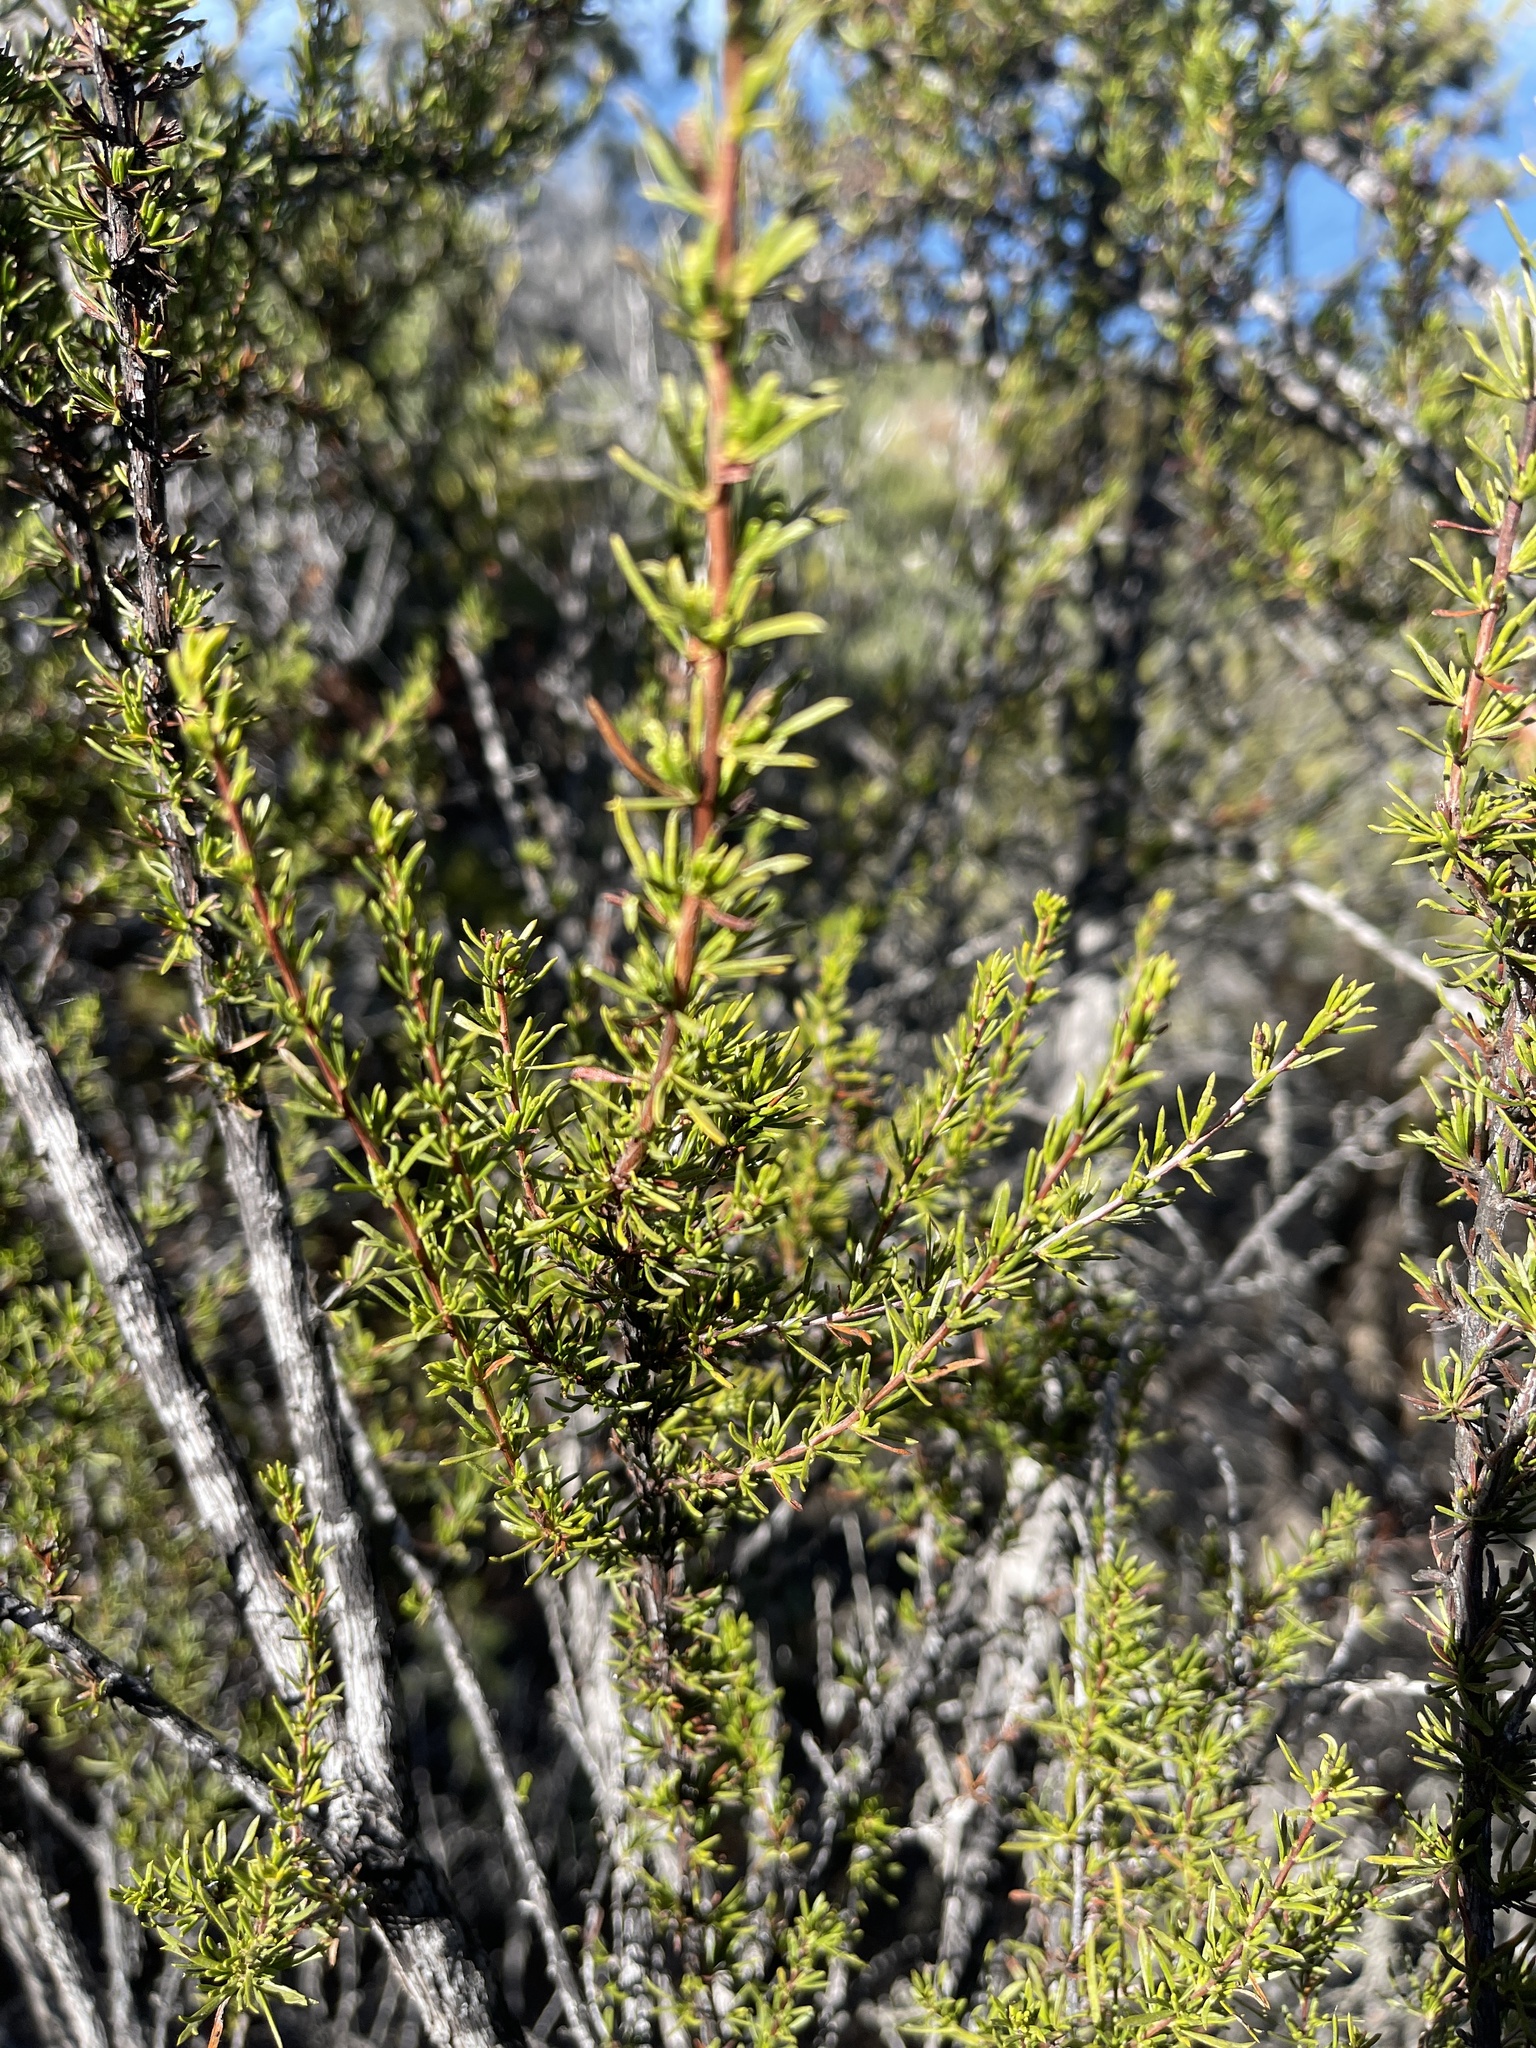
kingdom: Plantae
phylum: Tracheophyta
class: Magnoliopsida
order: Rosales
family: Rosaceae
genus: Adenostoma
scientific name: Adenostoma fasciculatum
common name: Chamise
